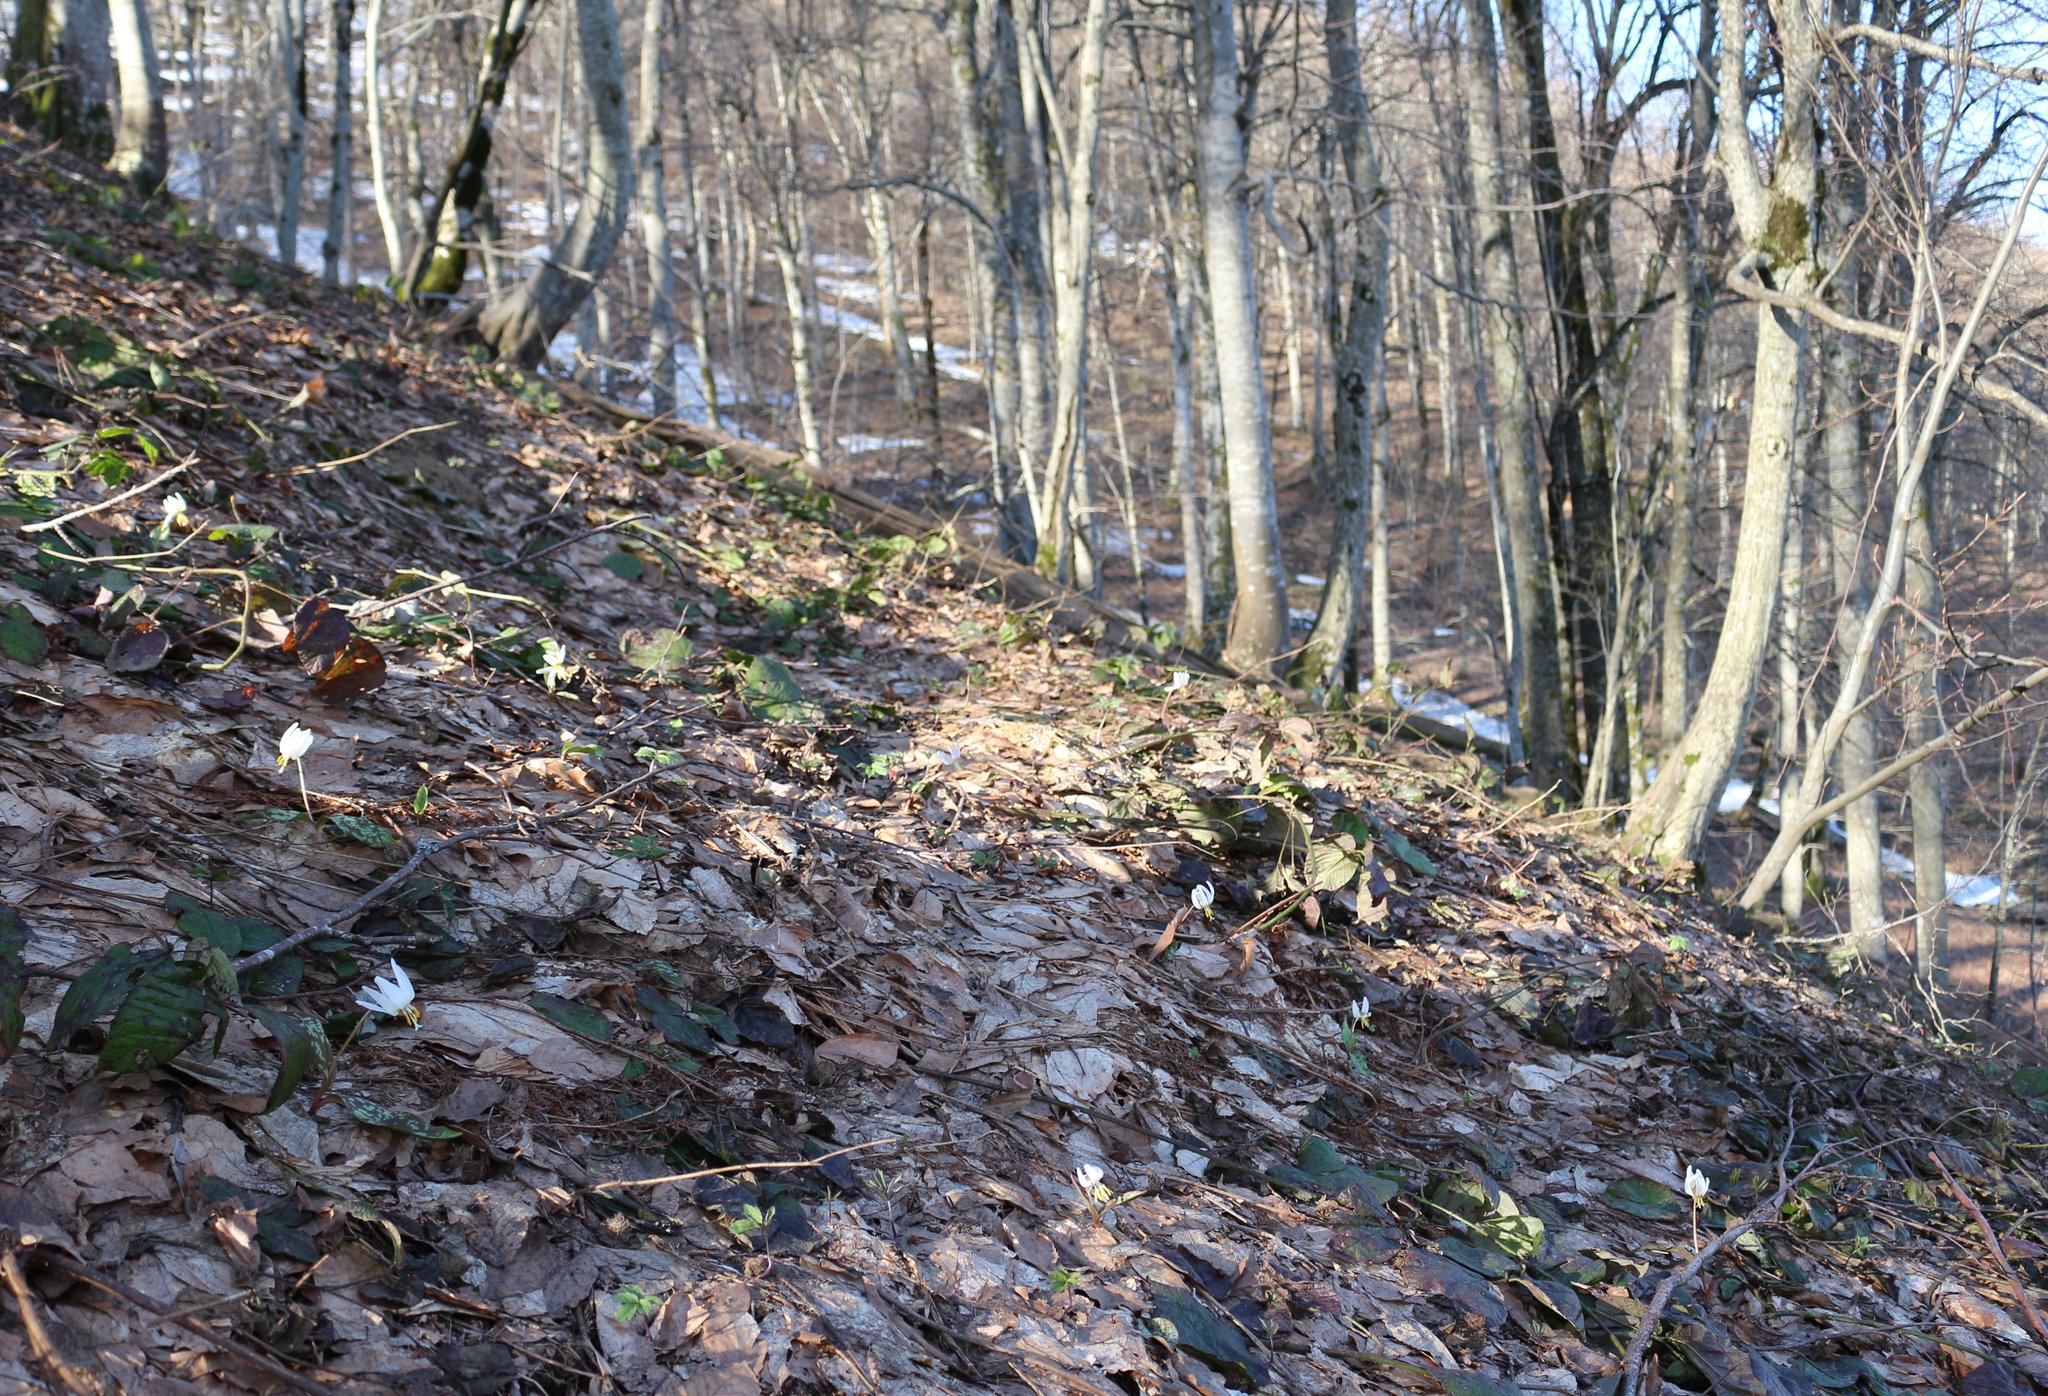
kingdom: Plantae
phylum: Tracheophyta
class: Liliopsida
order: Liliales
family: Liliaceae
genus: Erythronium
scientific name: Erythronium caucasicum
